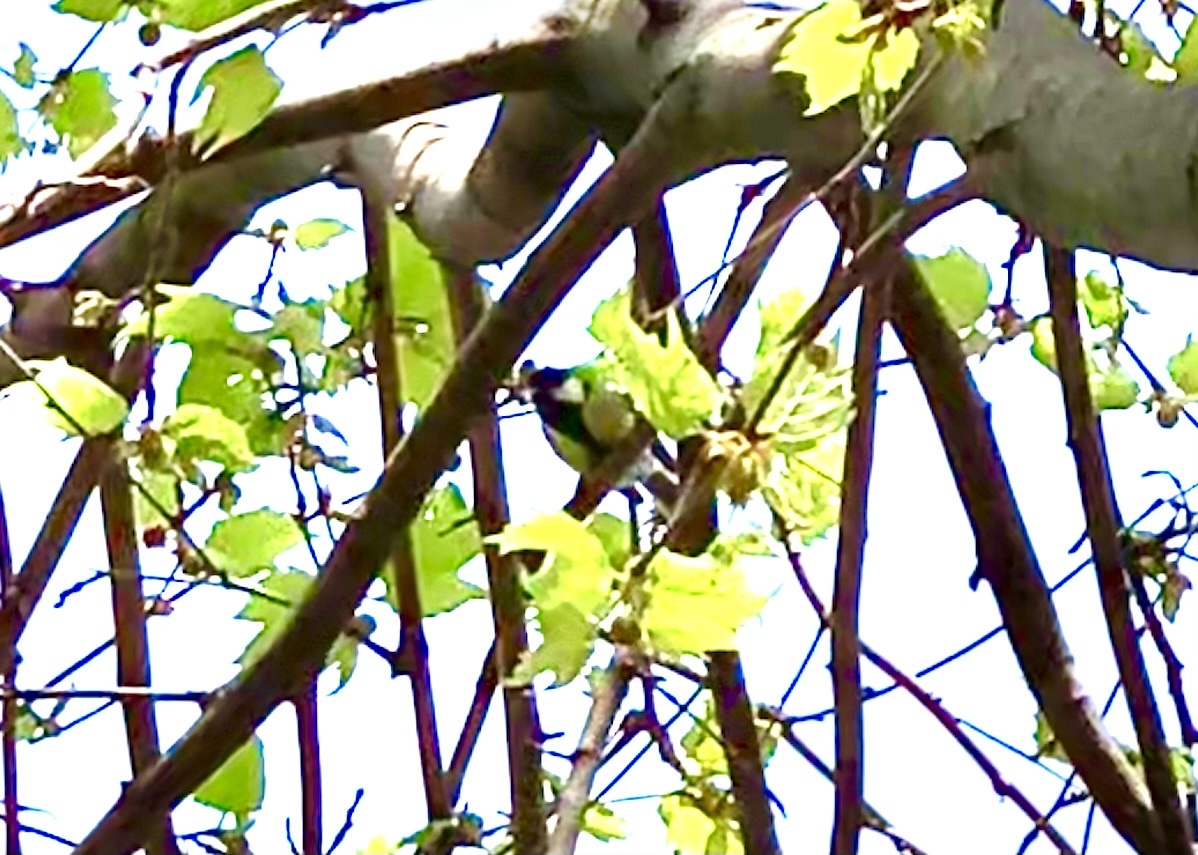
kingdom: Animalia
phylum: Chordata
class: Aves
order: Passeriformes
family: Paridae
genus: Parus
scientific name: Parus major
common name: Great tit
